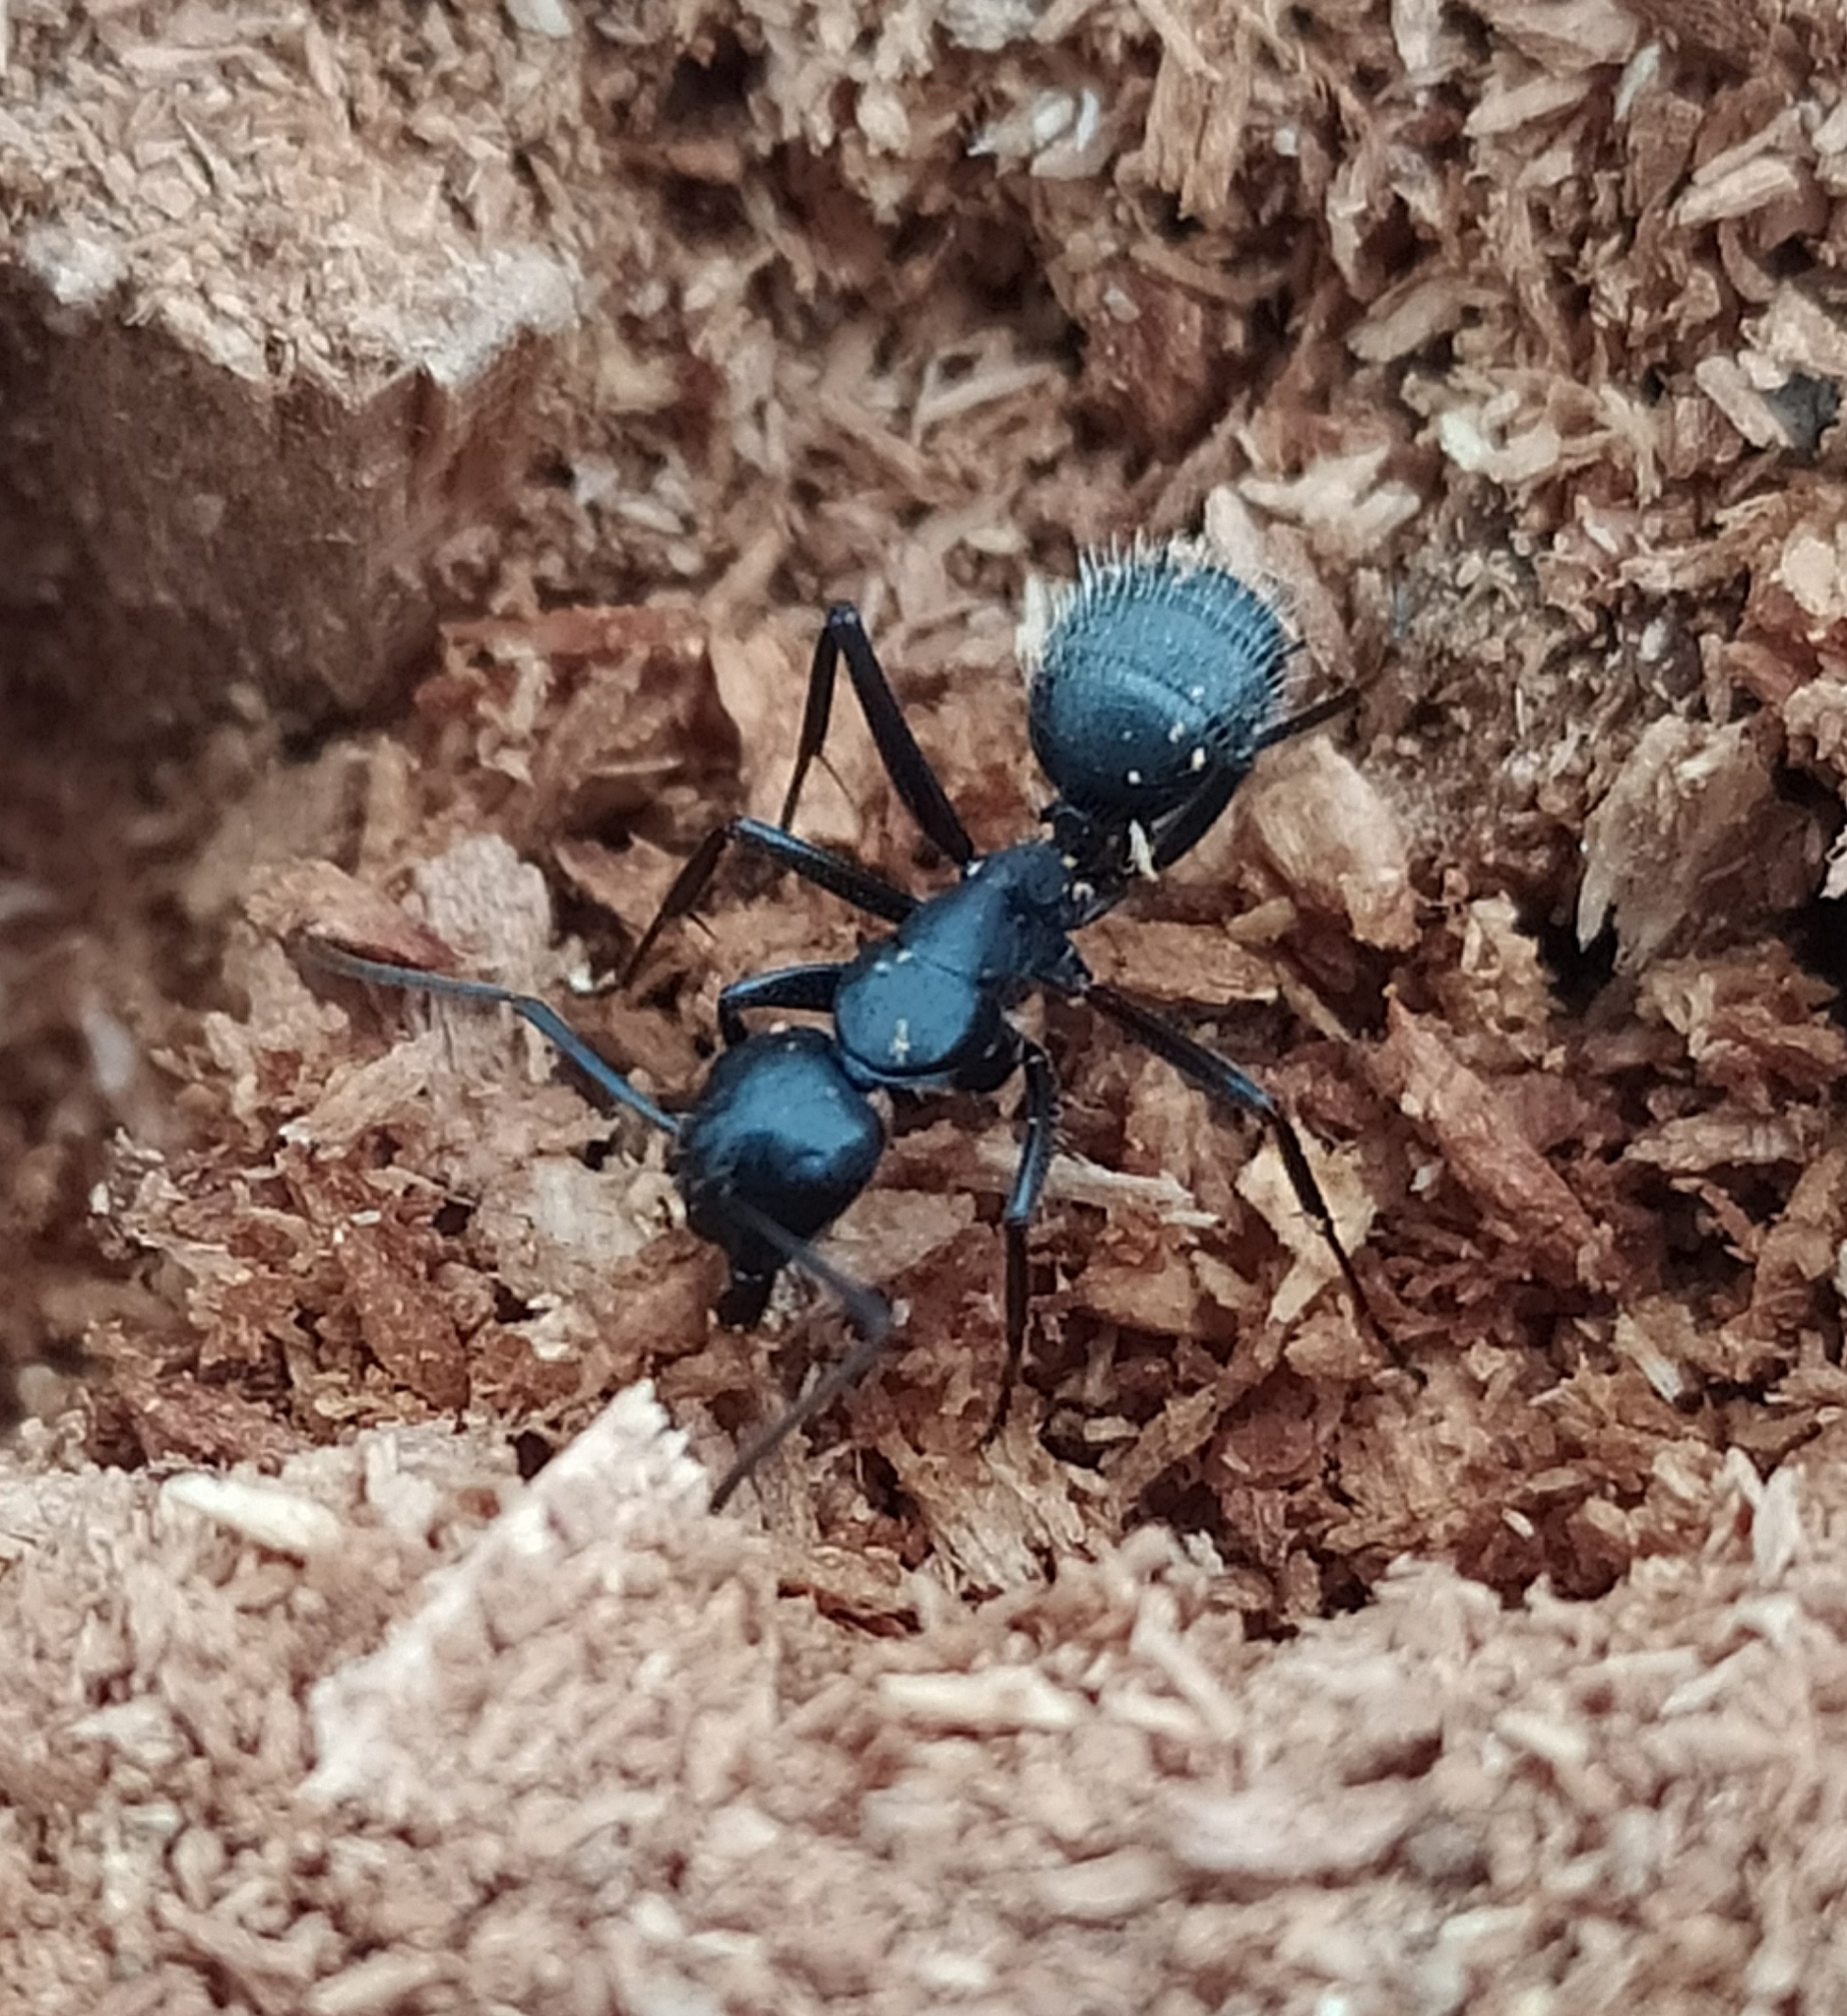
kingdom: Animalia
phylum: Arthropoda
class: Insecta
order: Hymenoptera
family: Formicidae
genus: Camponotus
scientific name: Camponotus vagus
